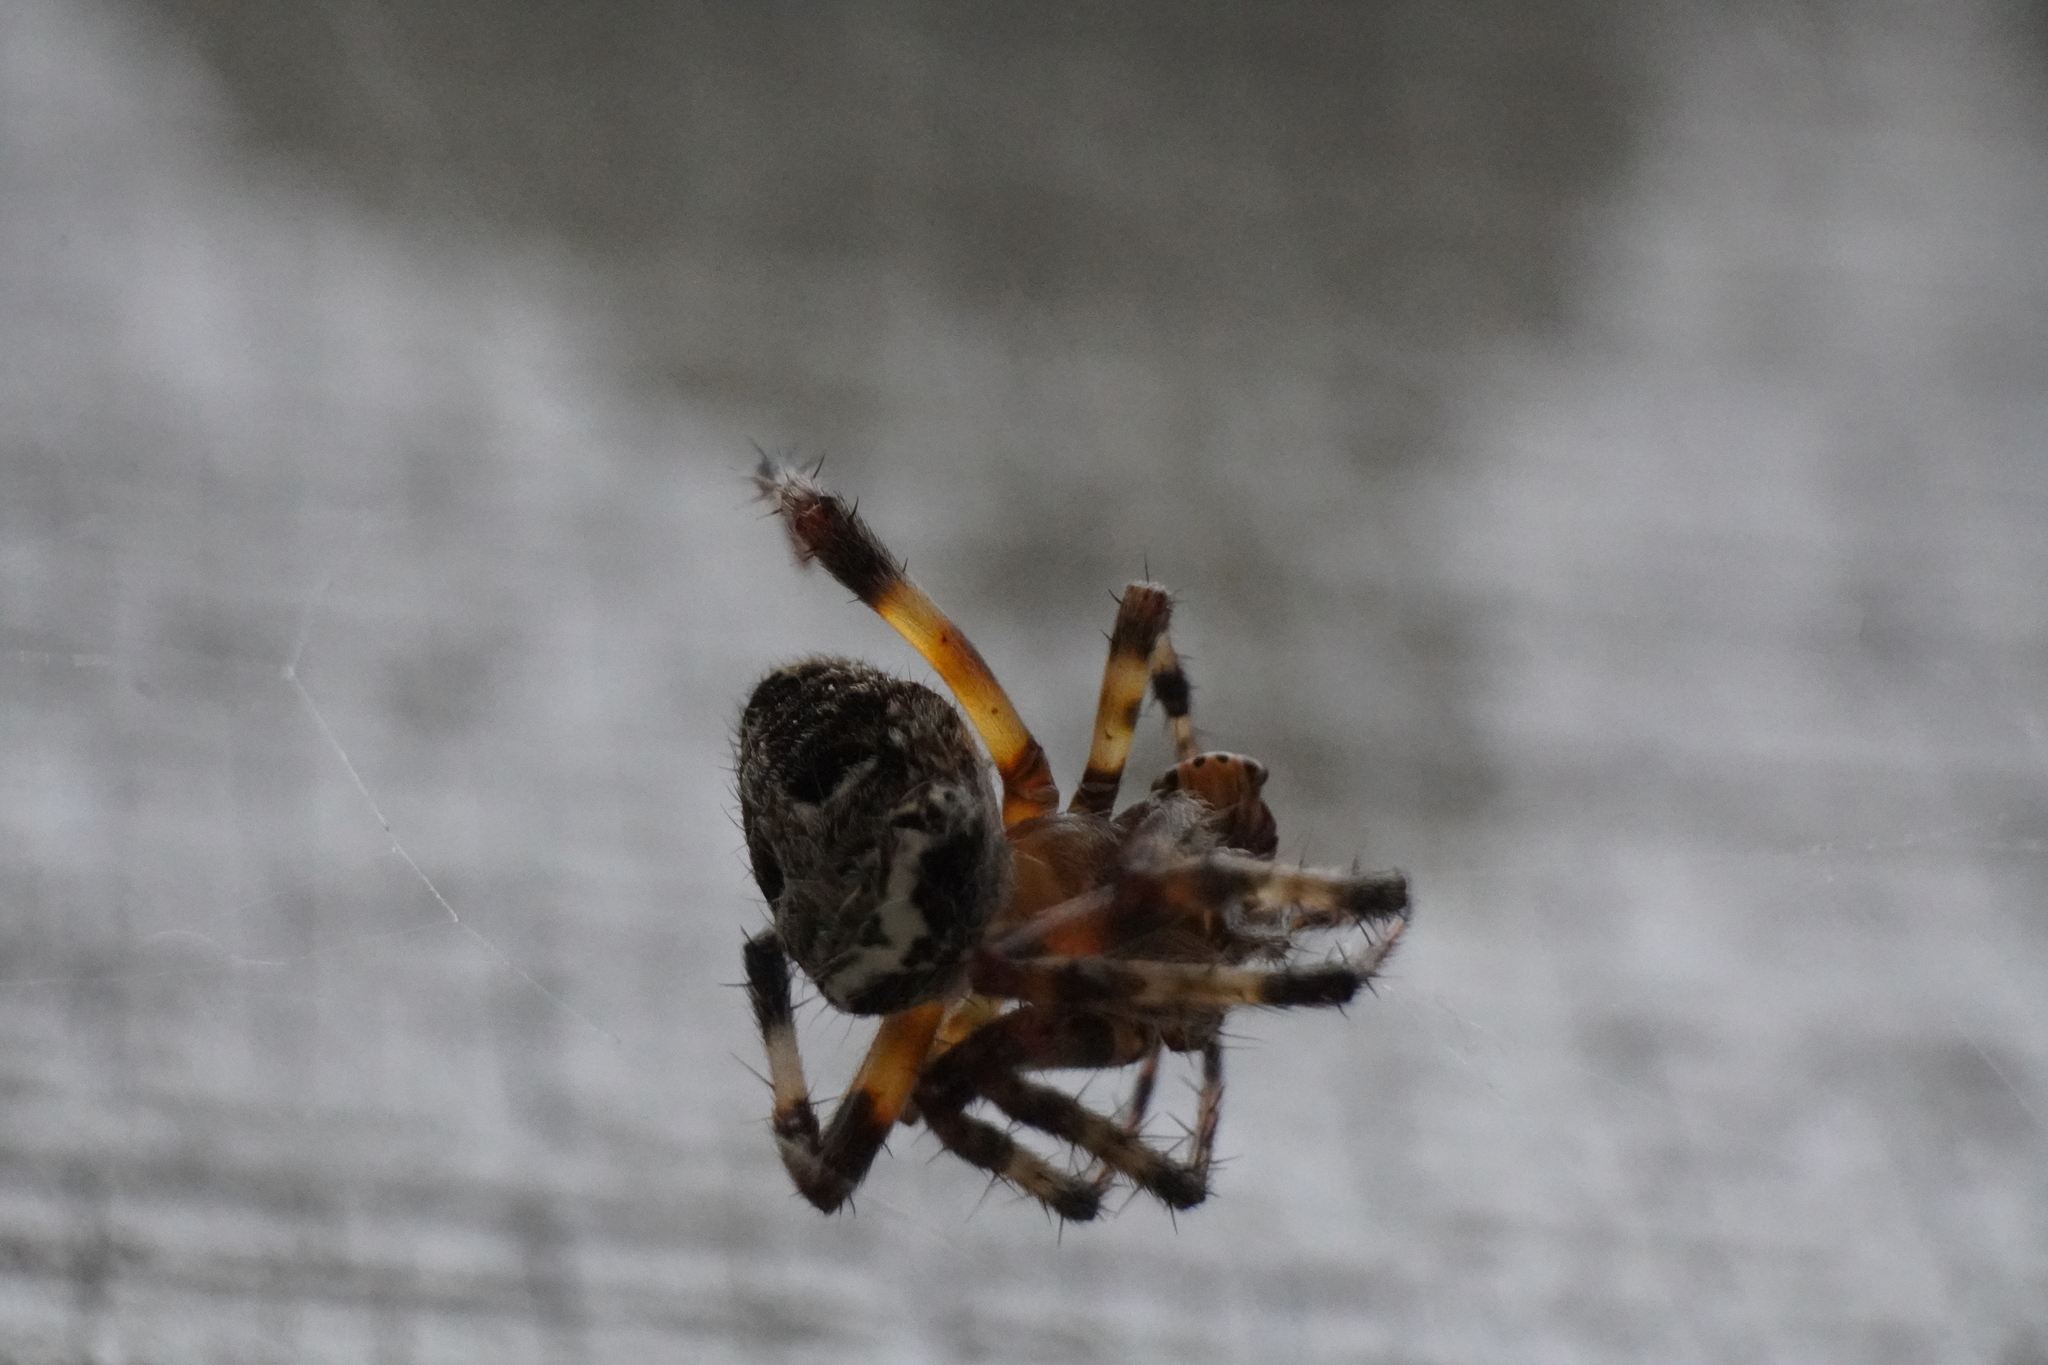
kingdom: Animalia
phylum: Arthropoda
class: Arachnida
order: Araneae
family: Araneidae
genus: Neoscona
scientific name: Neoscona domiciliorum
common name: Red-femured spotted orbweaver
